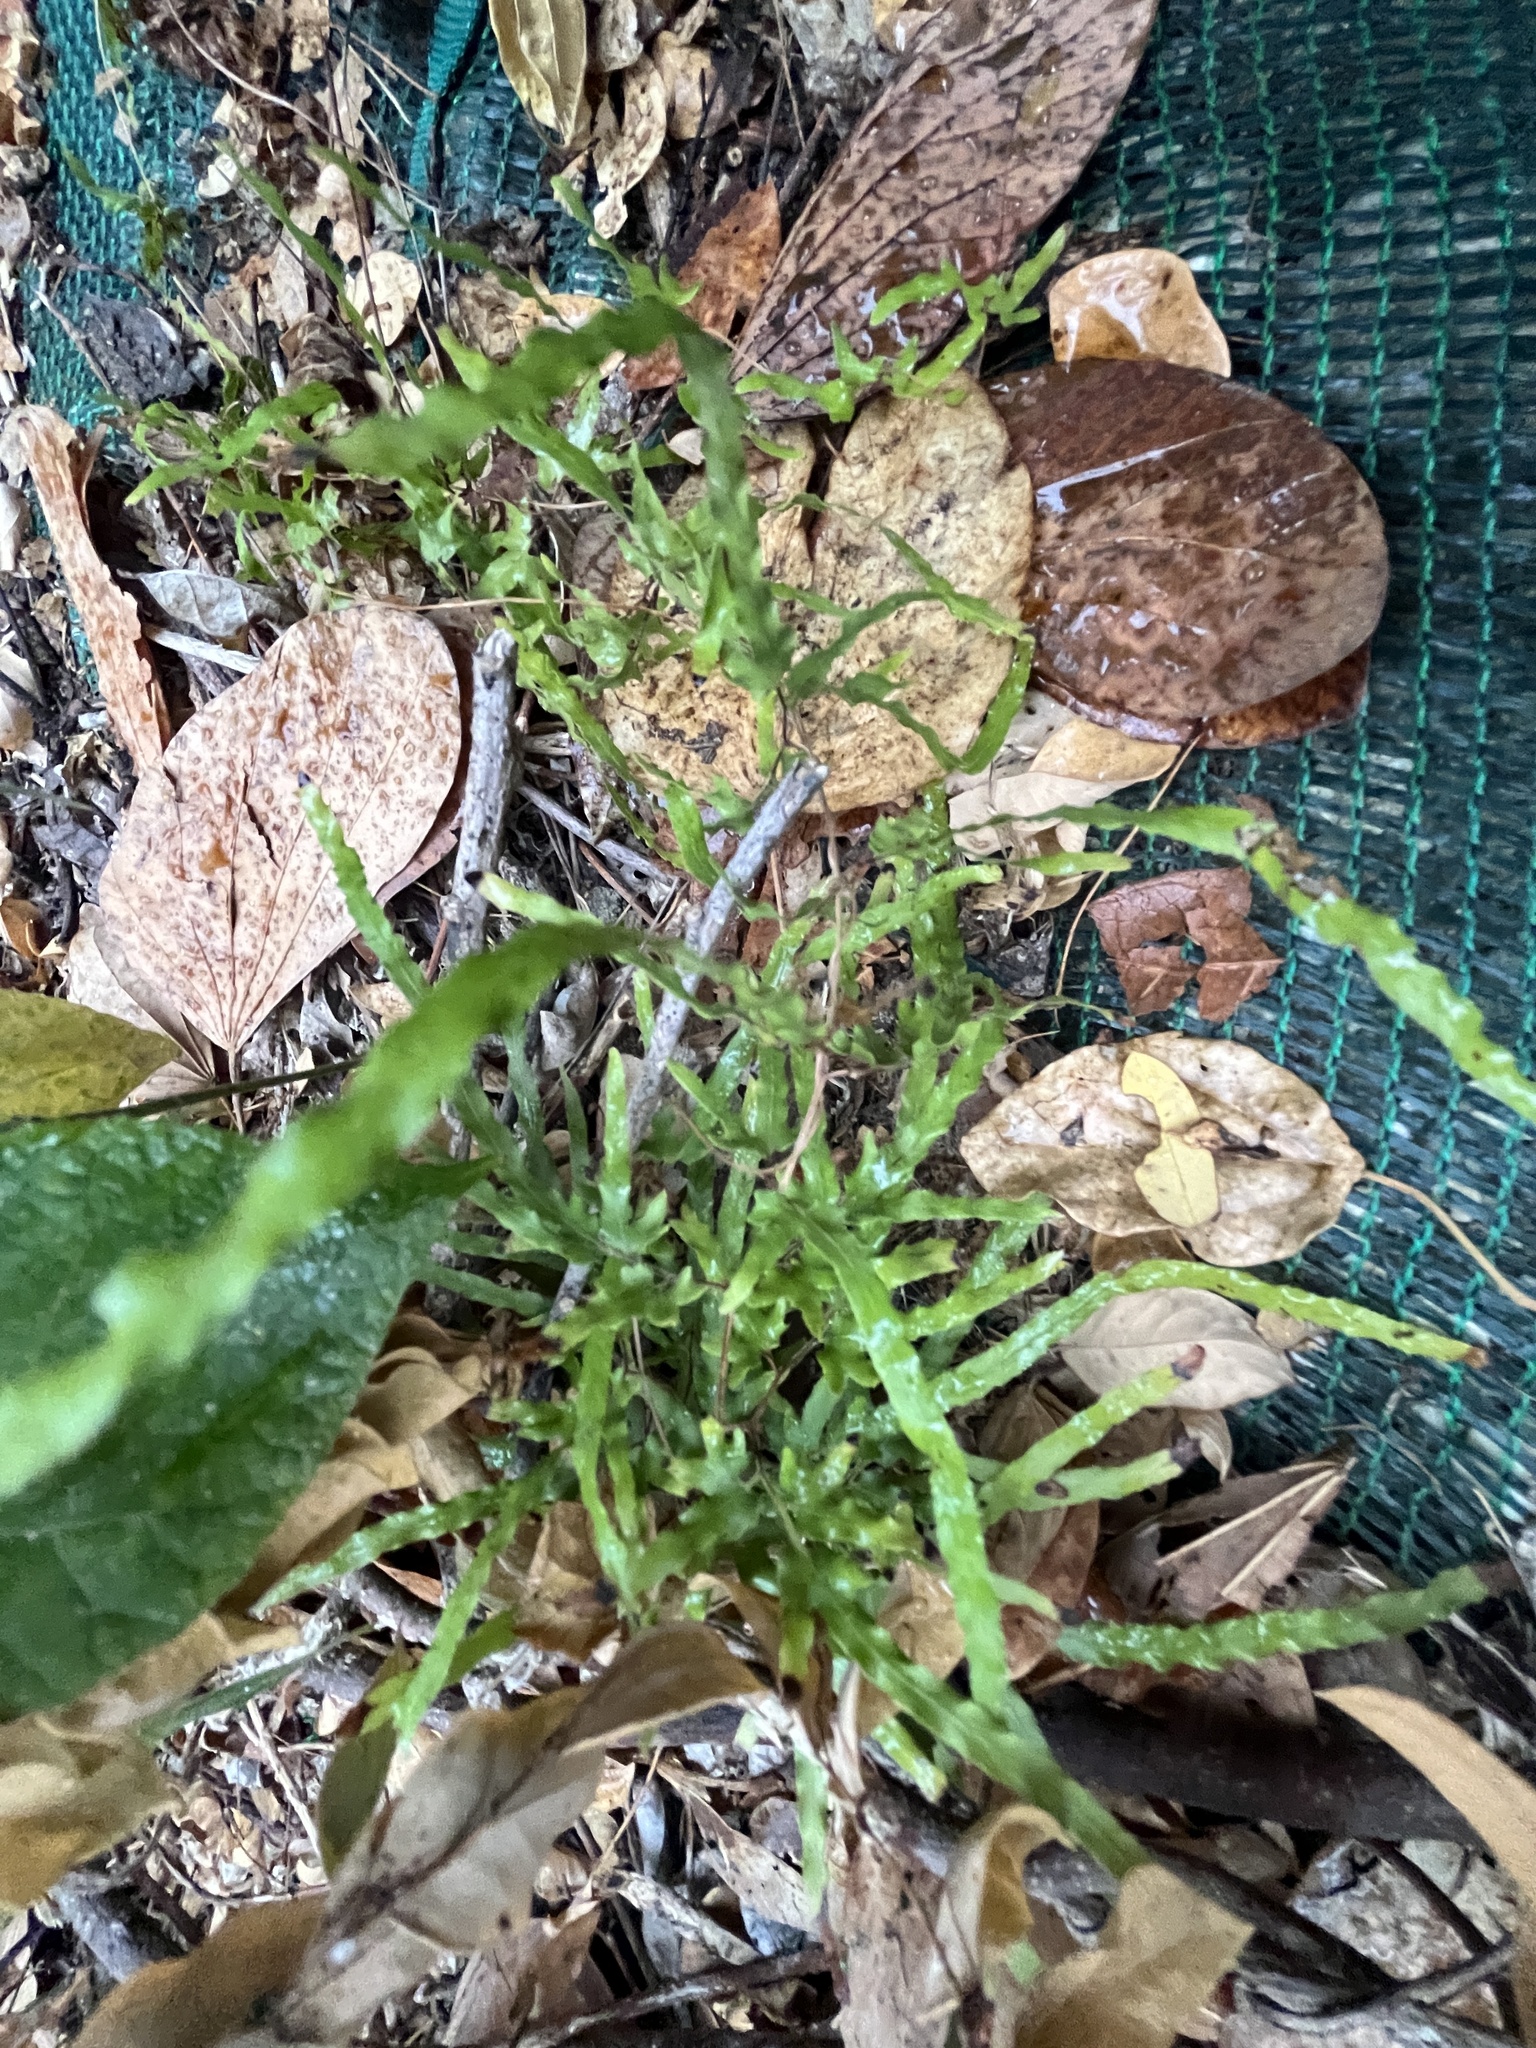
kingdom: Plantae
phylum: Tracheophyta
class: Polypodiopsida
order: Schizaeales
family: Lygodiaceae
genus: Lygodium
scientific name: Lygodium japonicum
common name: Japanese climbing fern
